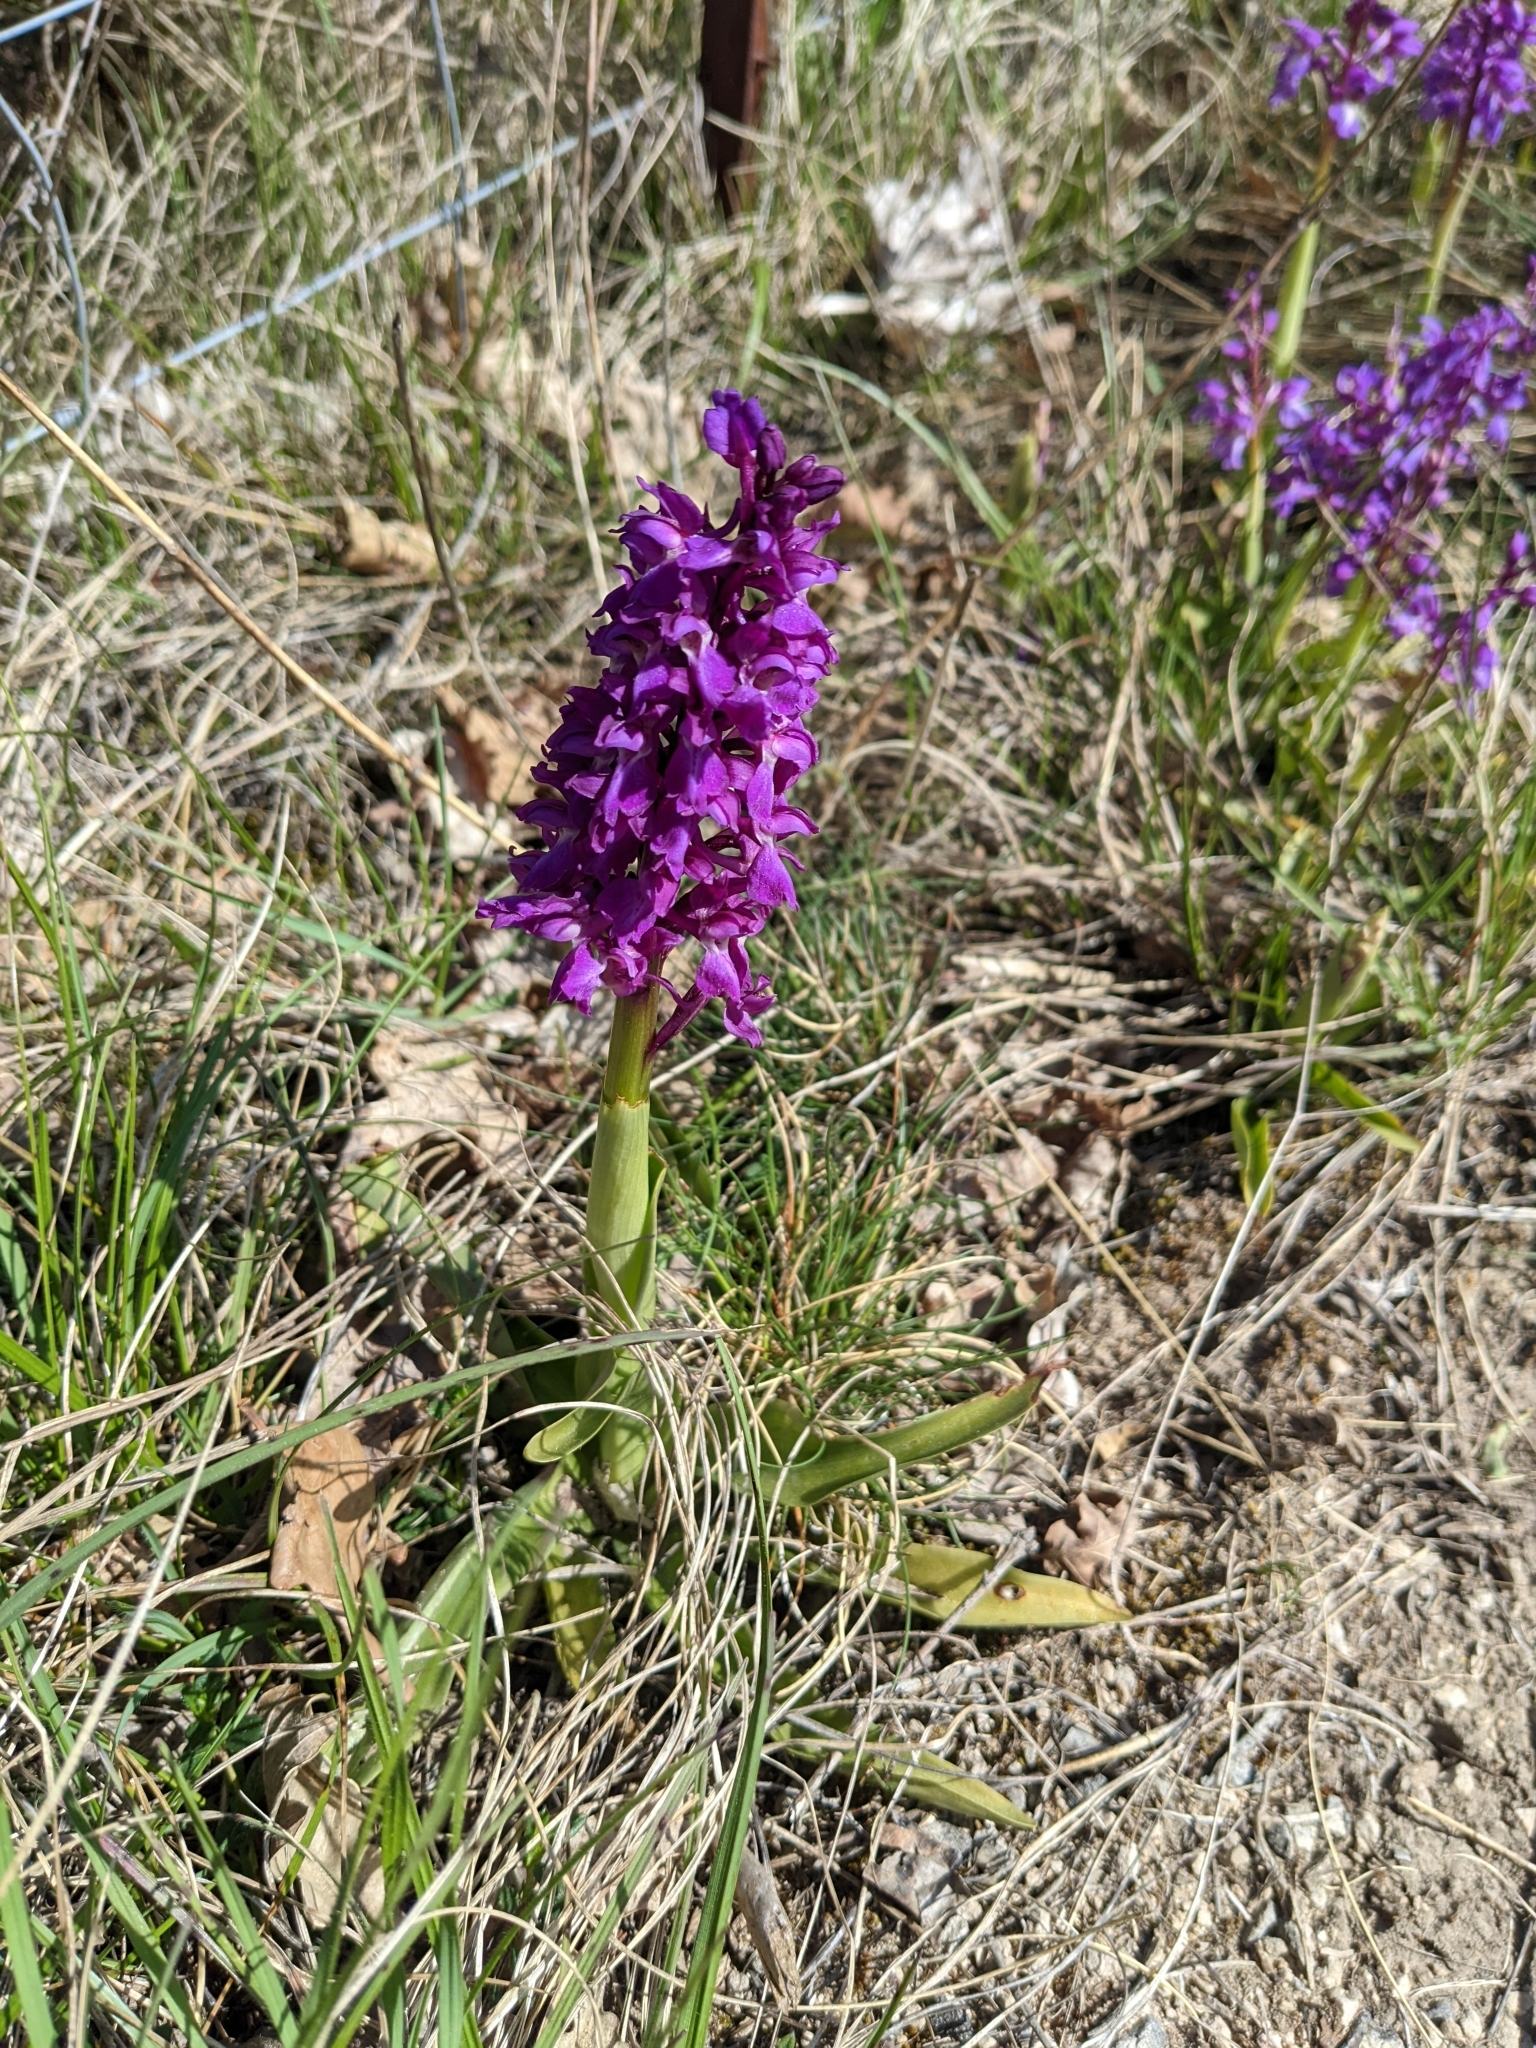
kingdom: Plantae
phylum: Tracheophyta
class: Liliopsida
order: Asparagales
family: Orchidaceae
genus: Orchis
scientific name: Orchis mascula
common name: Early-purple orchid
